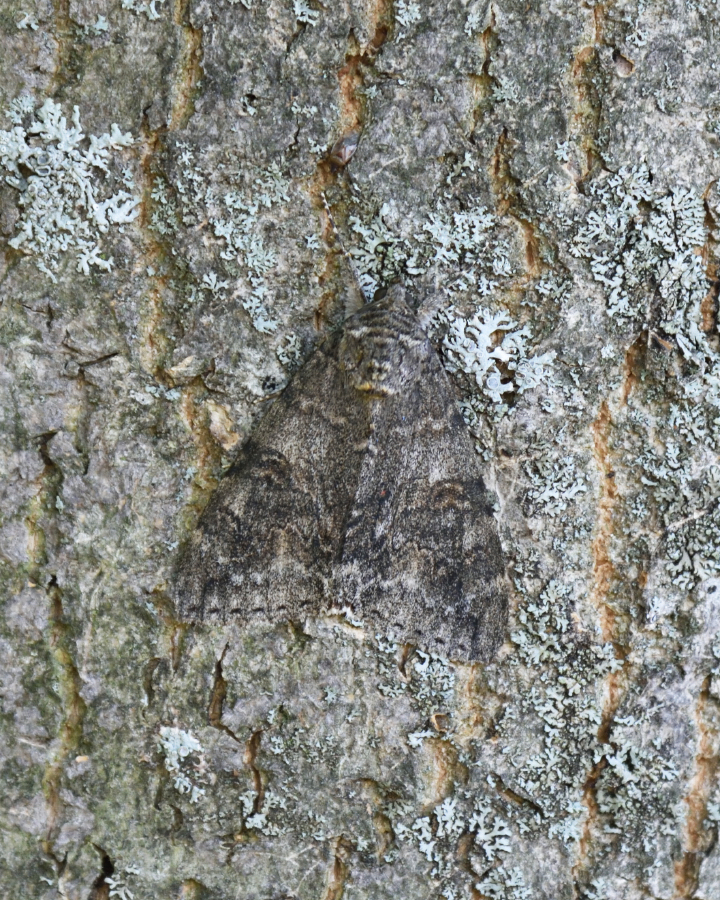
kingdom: Animalia
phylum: Arthropoda
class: Insecta
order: Lepidoptera
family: Erebidae
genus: Catocala
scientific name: Catocala nupta
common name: Red underwing
